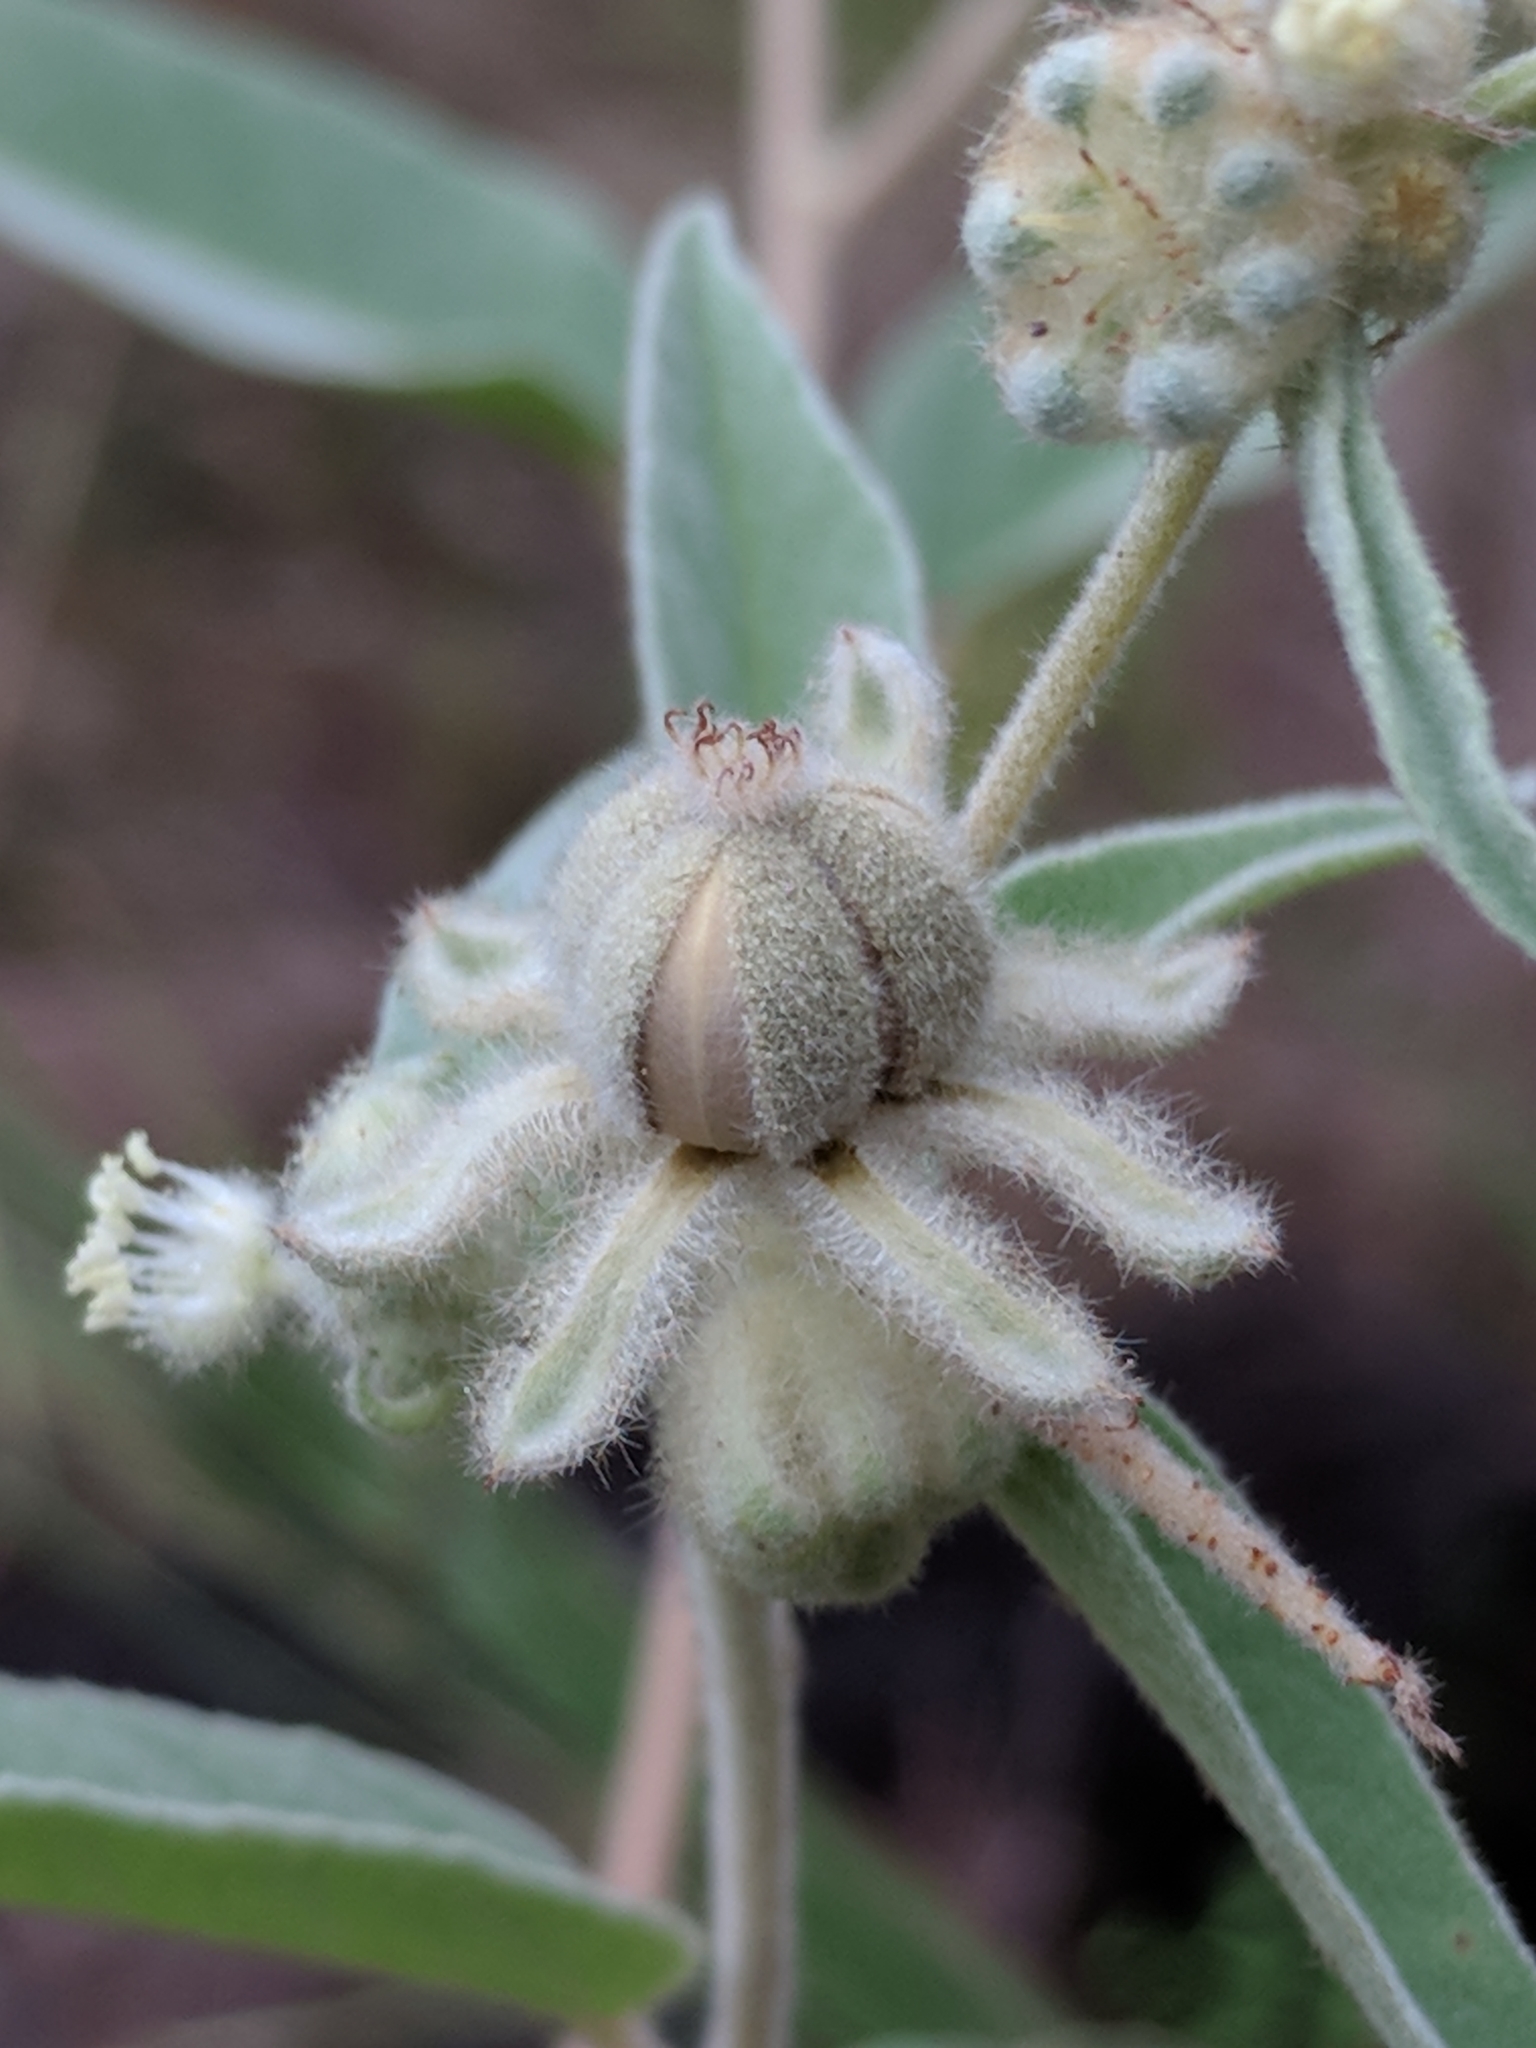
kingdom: Plantae
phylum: Tracheophyta
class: Magnoliopsida
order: Malpighiales
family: Euphorbiaceae
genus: Croton
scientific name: Croton lindheimeri
